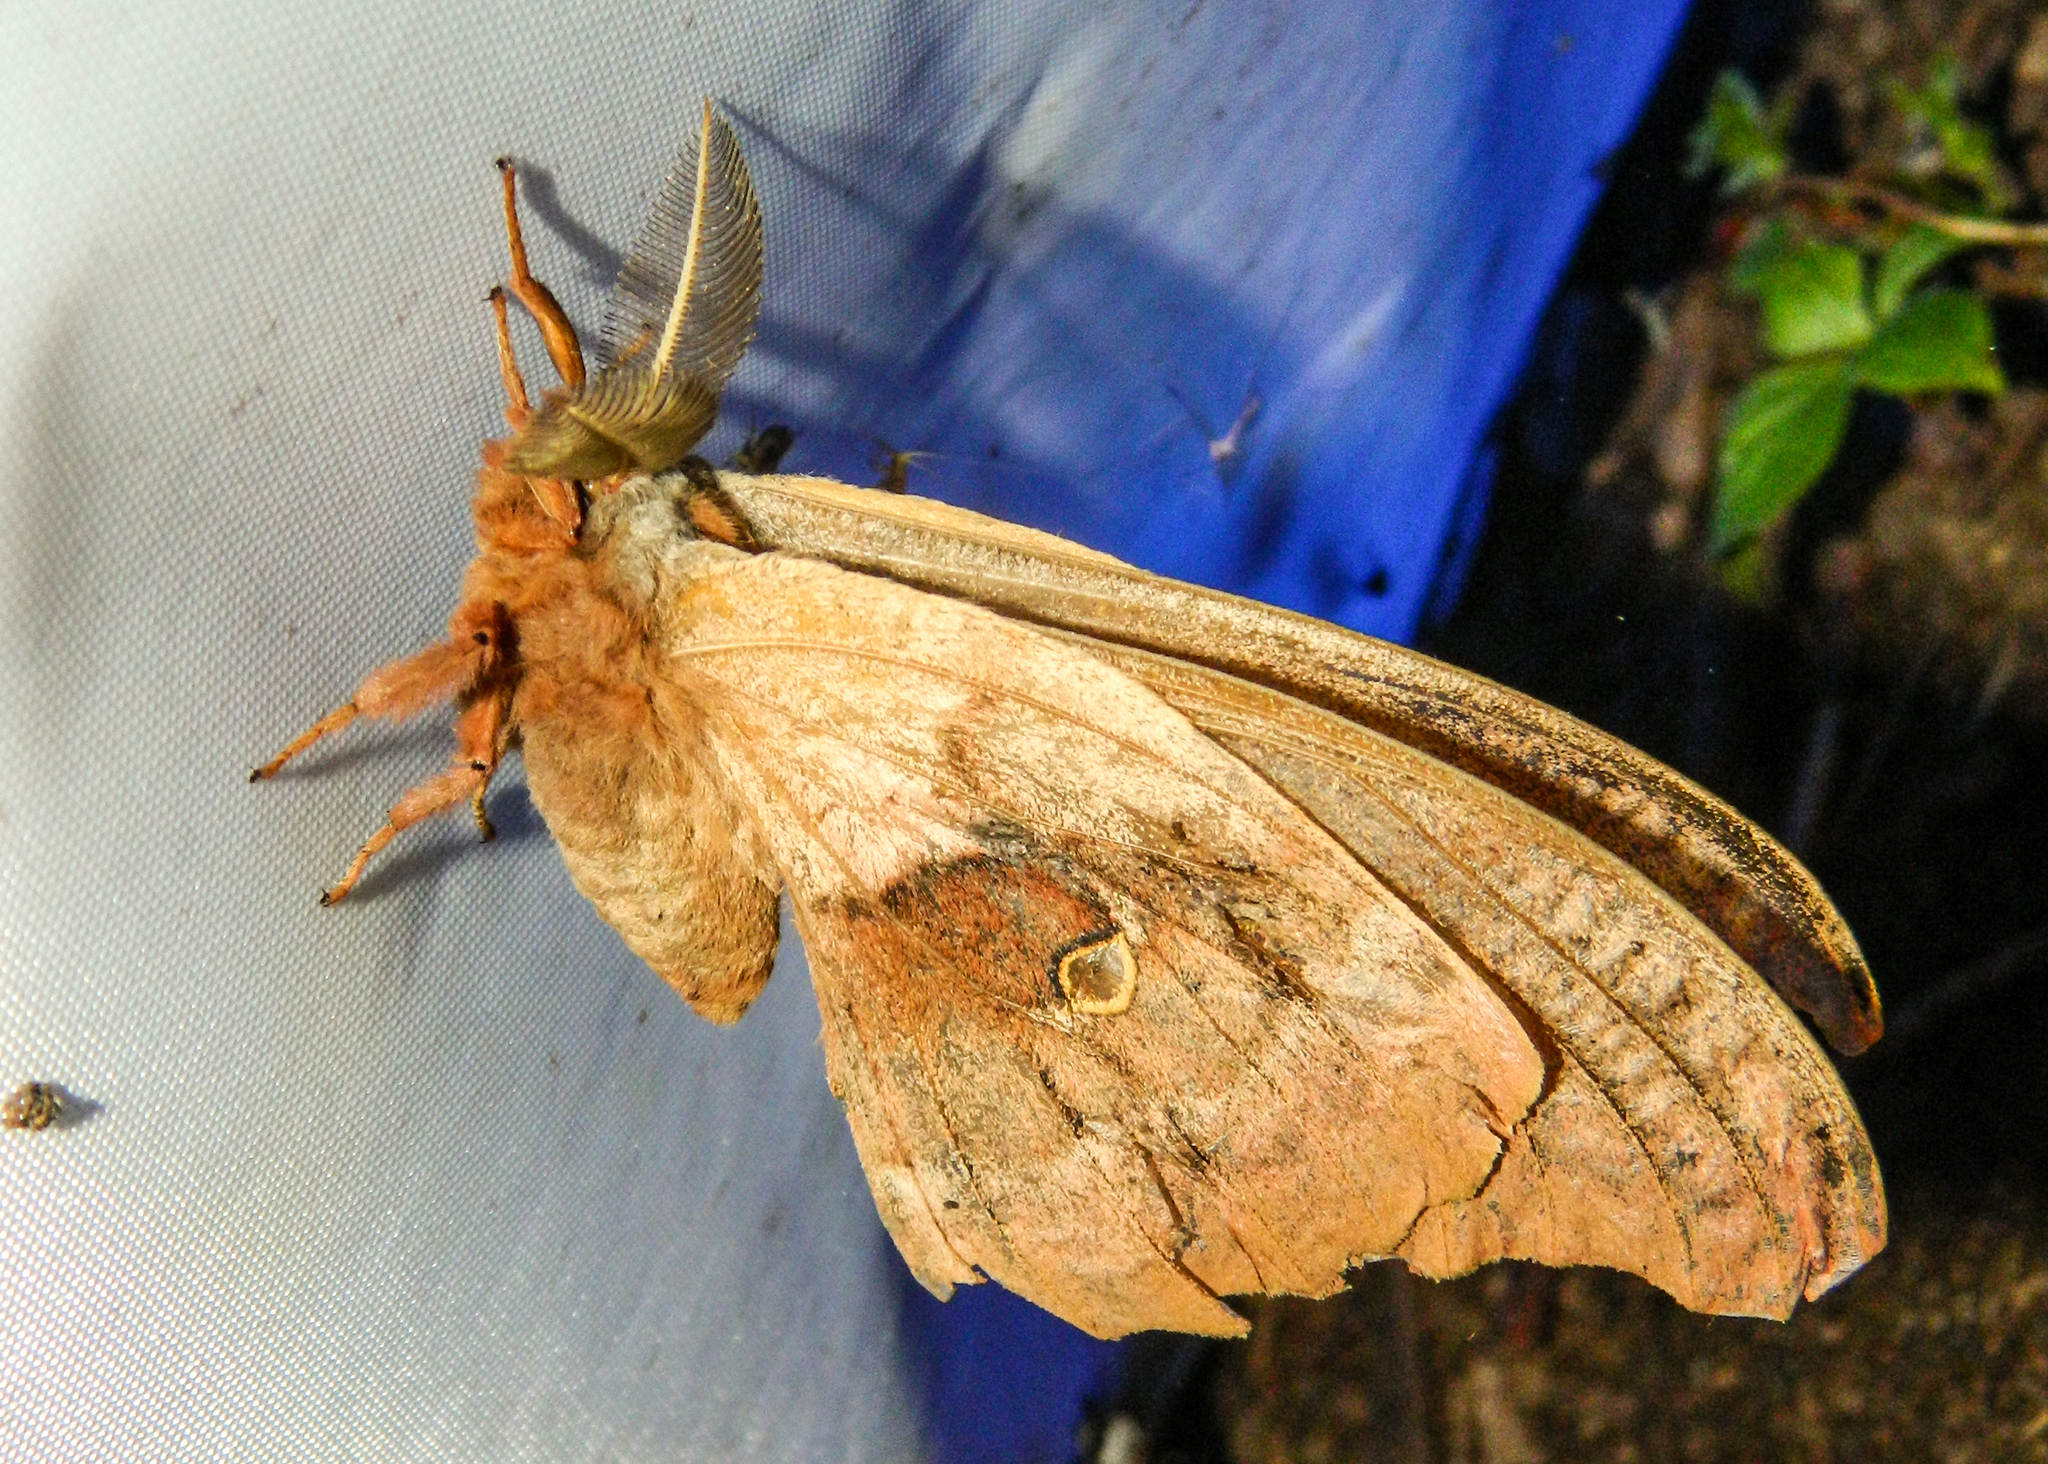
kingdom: Animalia
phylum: Arthropoda
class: Insecta
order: Lepidoptera
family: Saturniidae
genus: Antheraea
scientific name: Antheraea polyphemus
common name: Polyphemus moth
